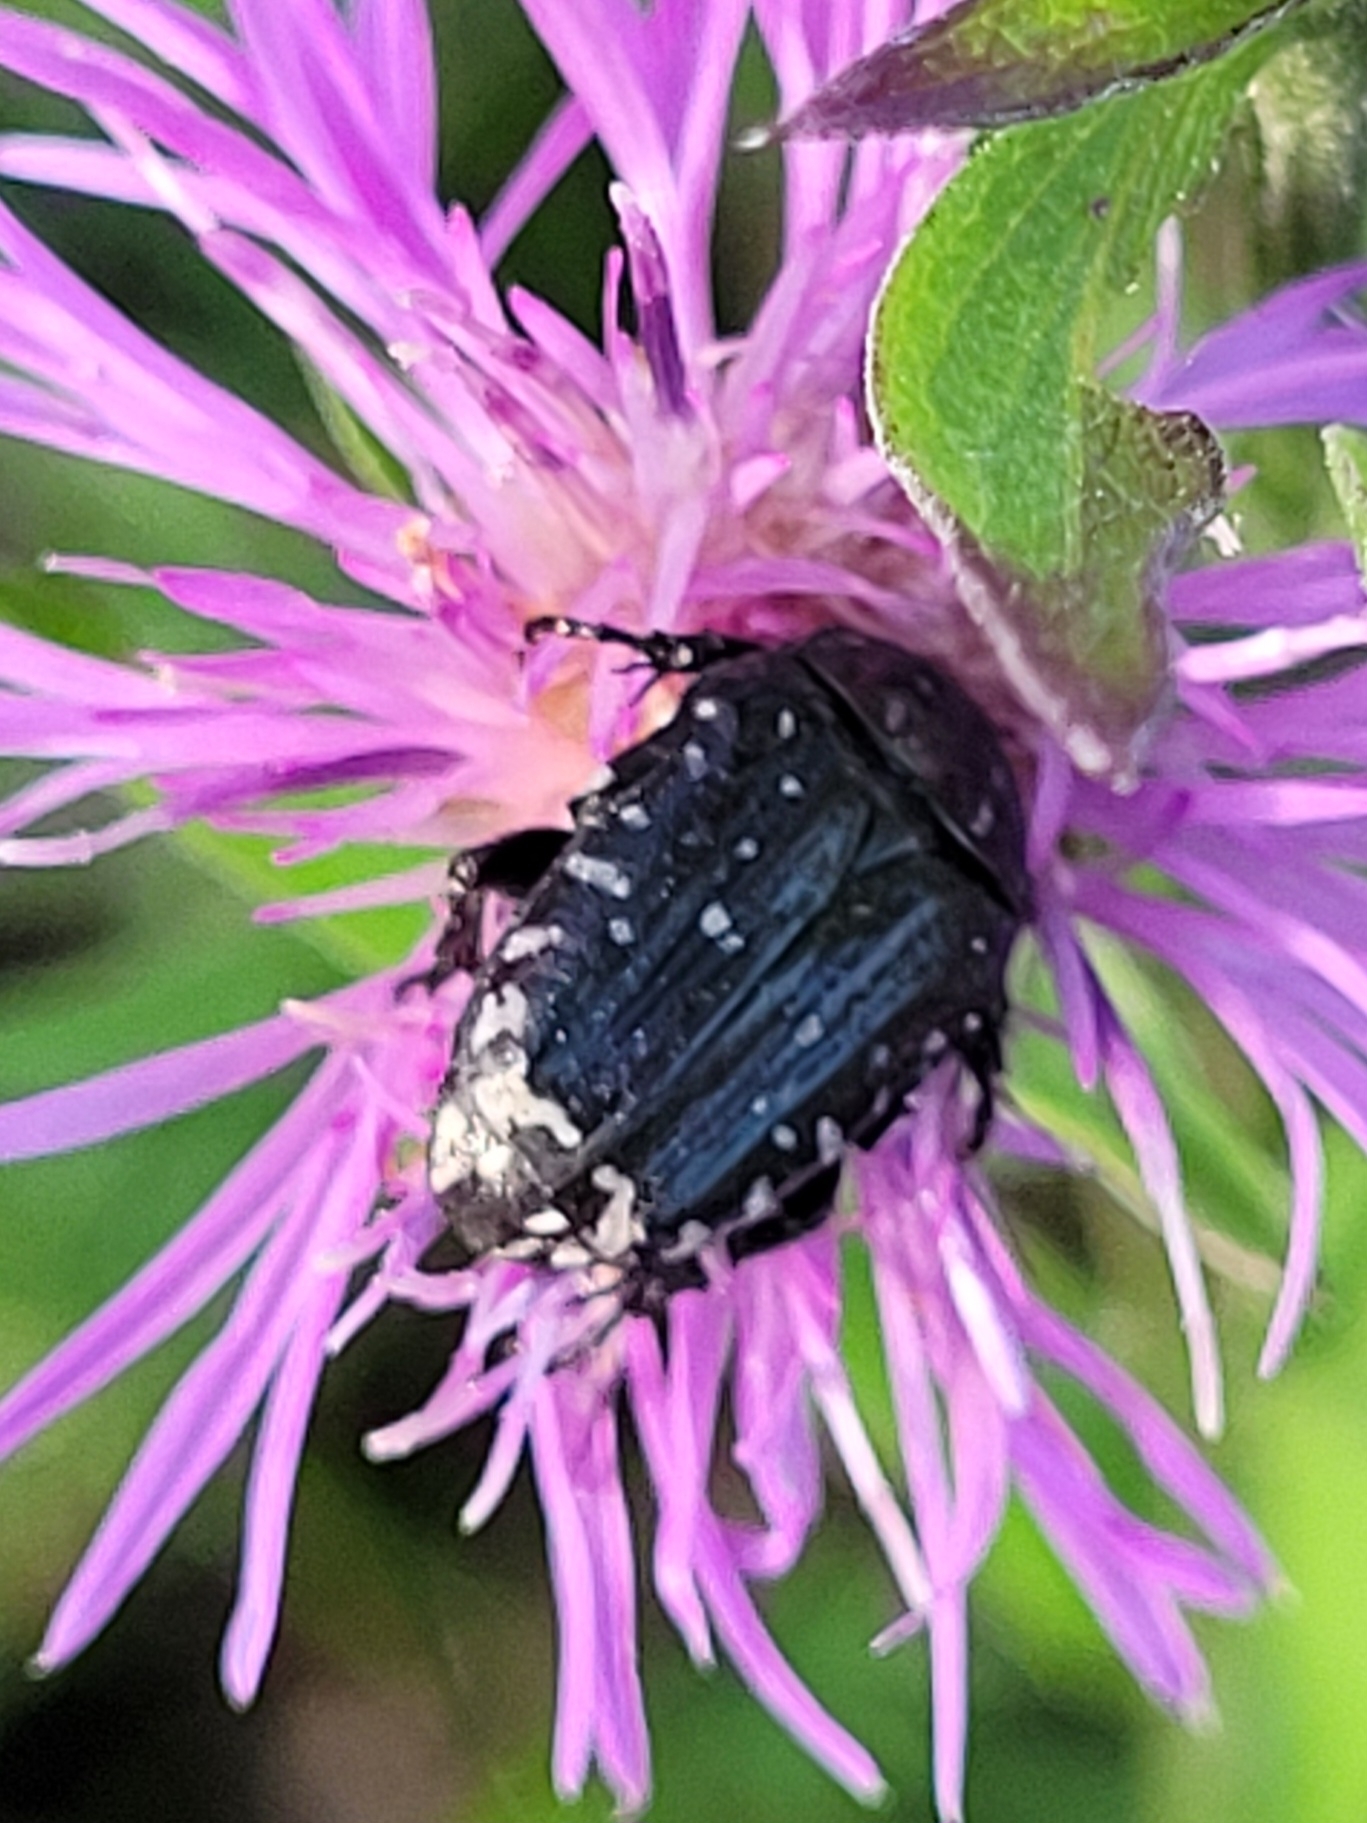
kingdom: Animalia
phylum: Arthropoda
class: Insecta
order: Coleoptera
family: Scarabaeidae
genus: Oxythyrea
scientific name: Oxythyrea funesta
